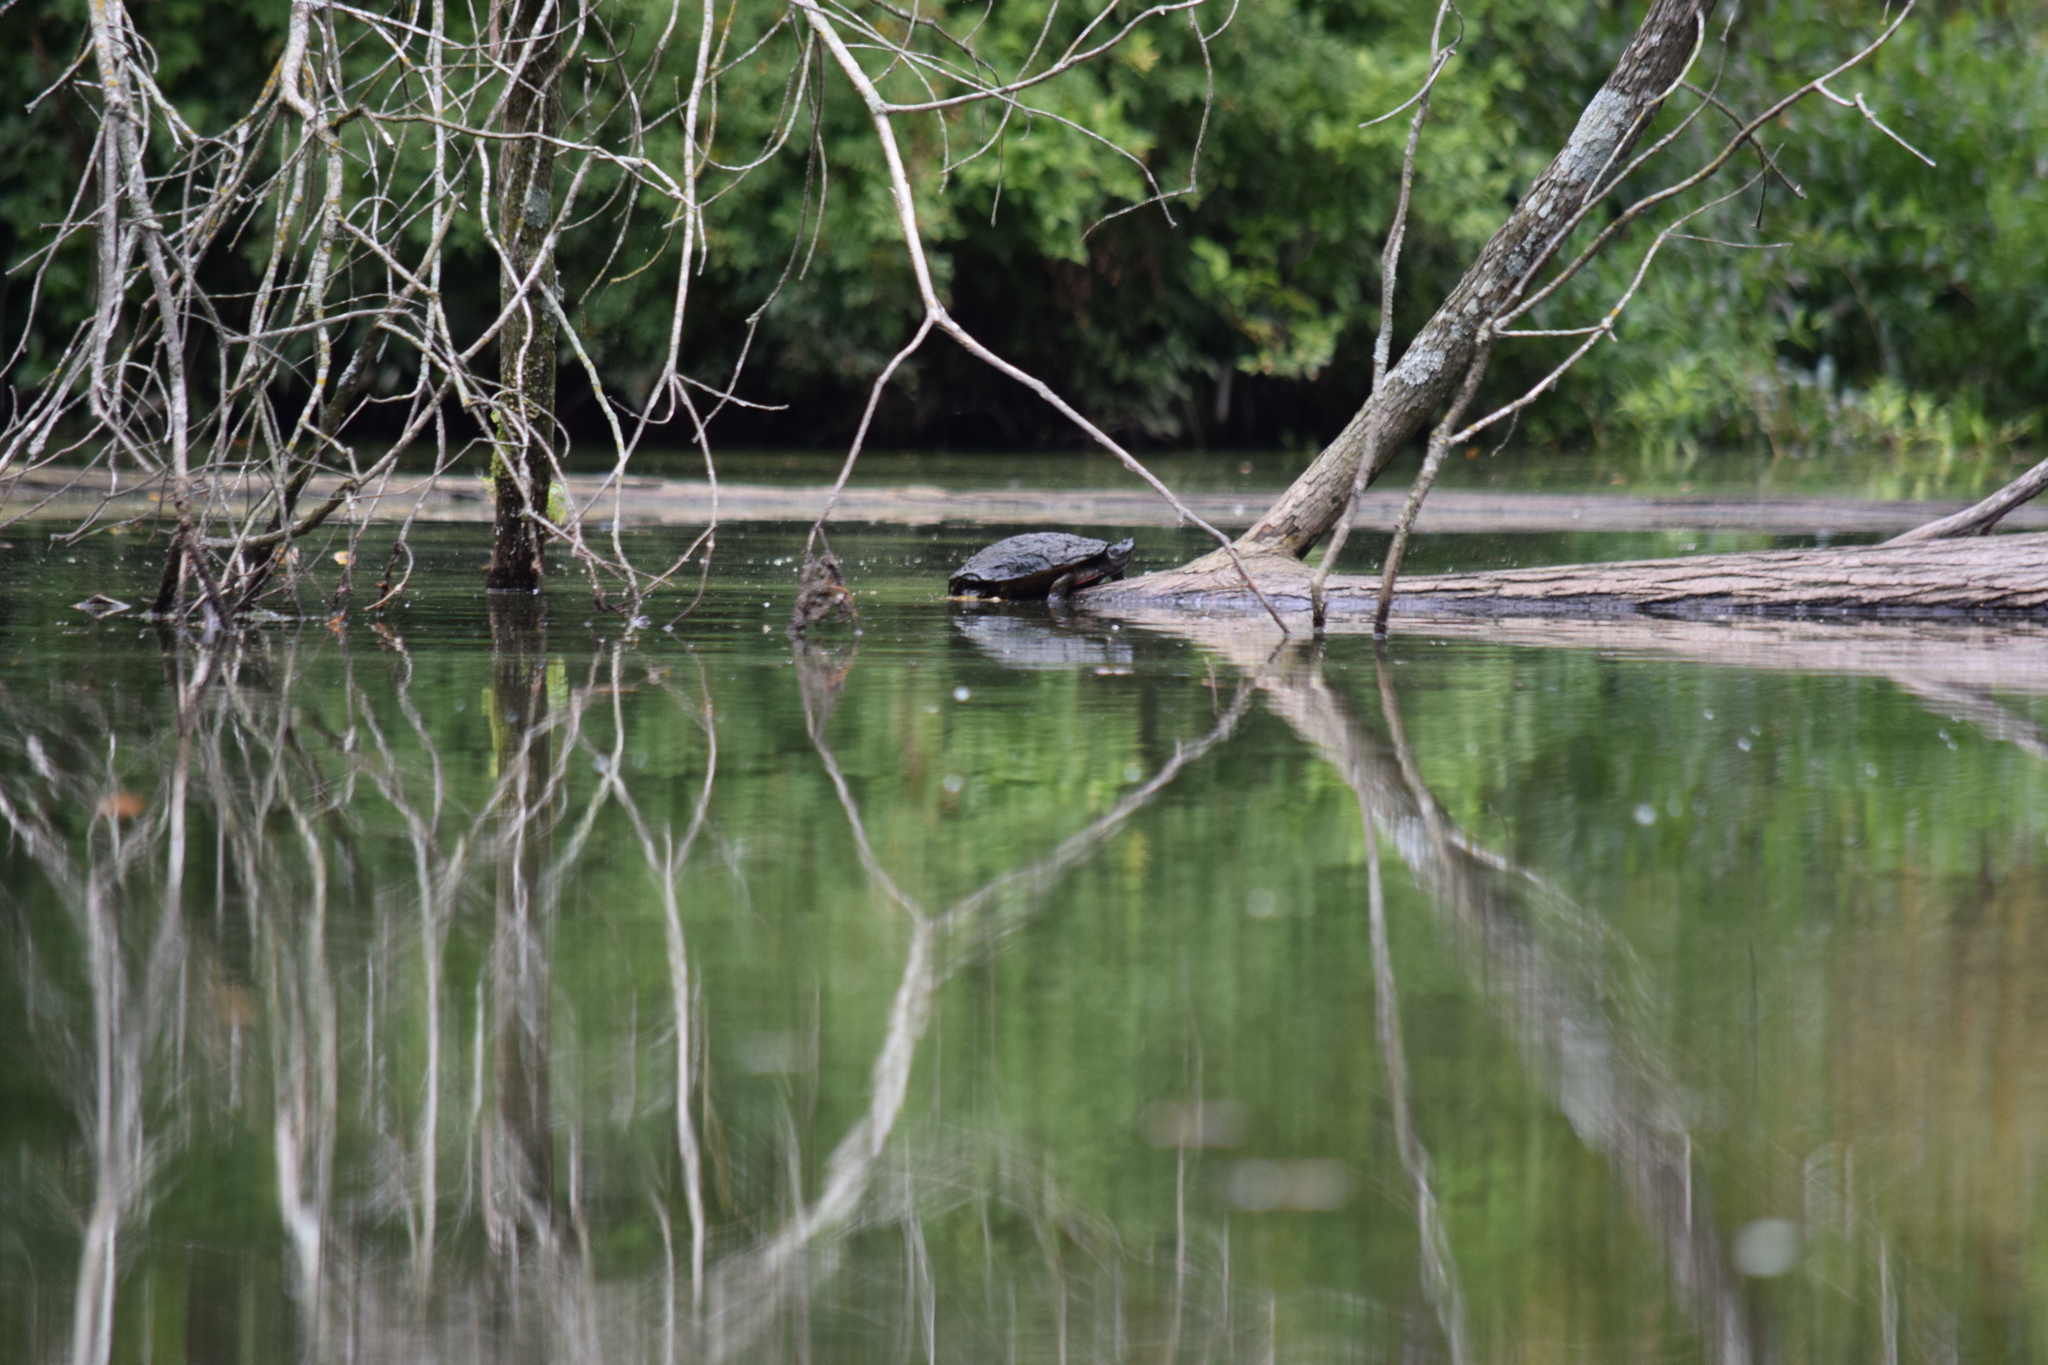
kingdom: Animalia
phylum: Chordata
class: Testudines
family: Emydidae
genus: Pseudemys
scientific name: Pseudemys rubriventris
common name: American red-bellied turtle
